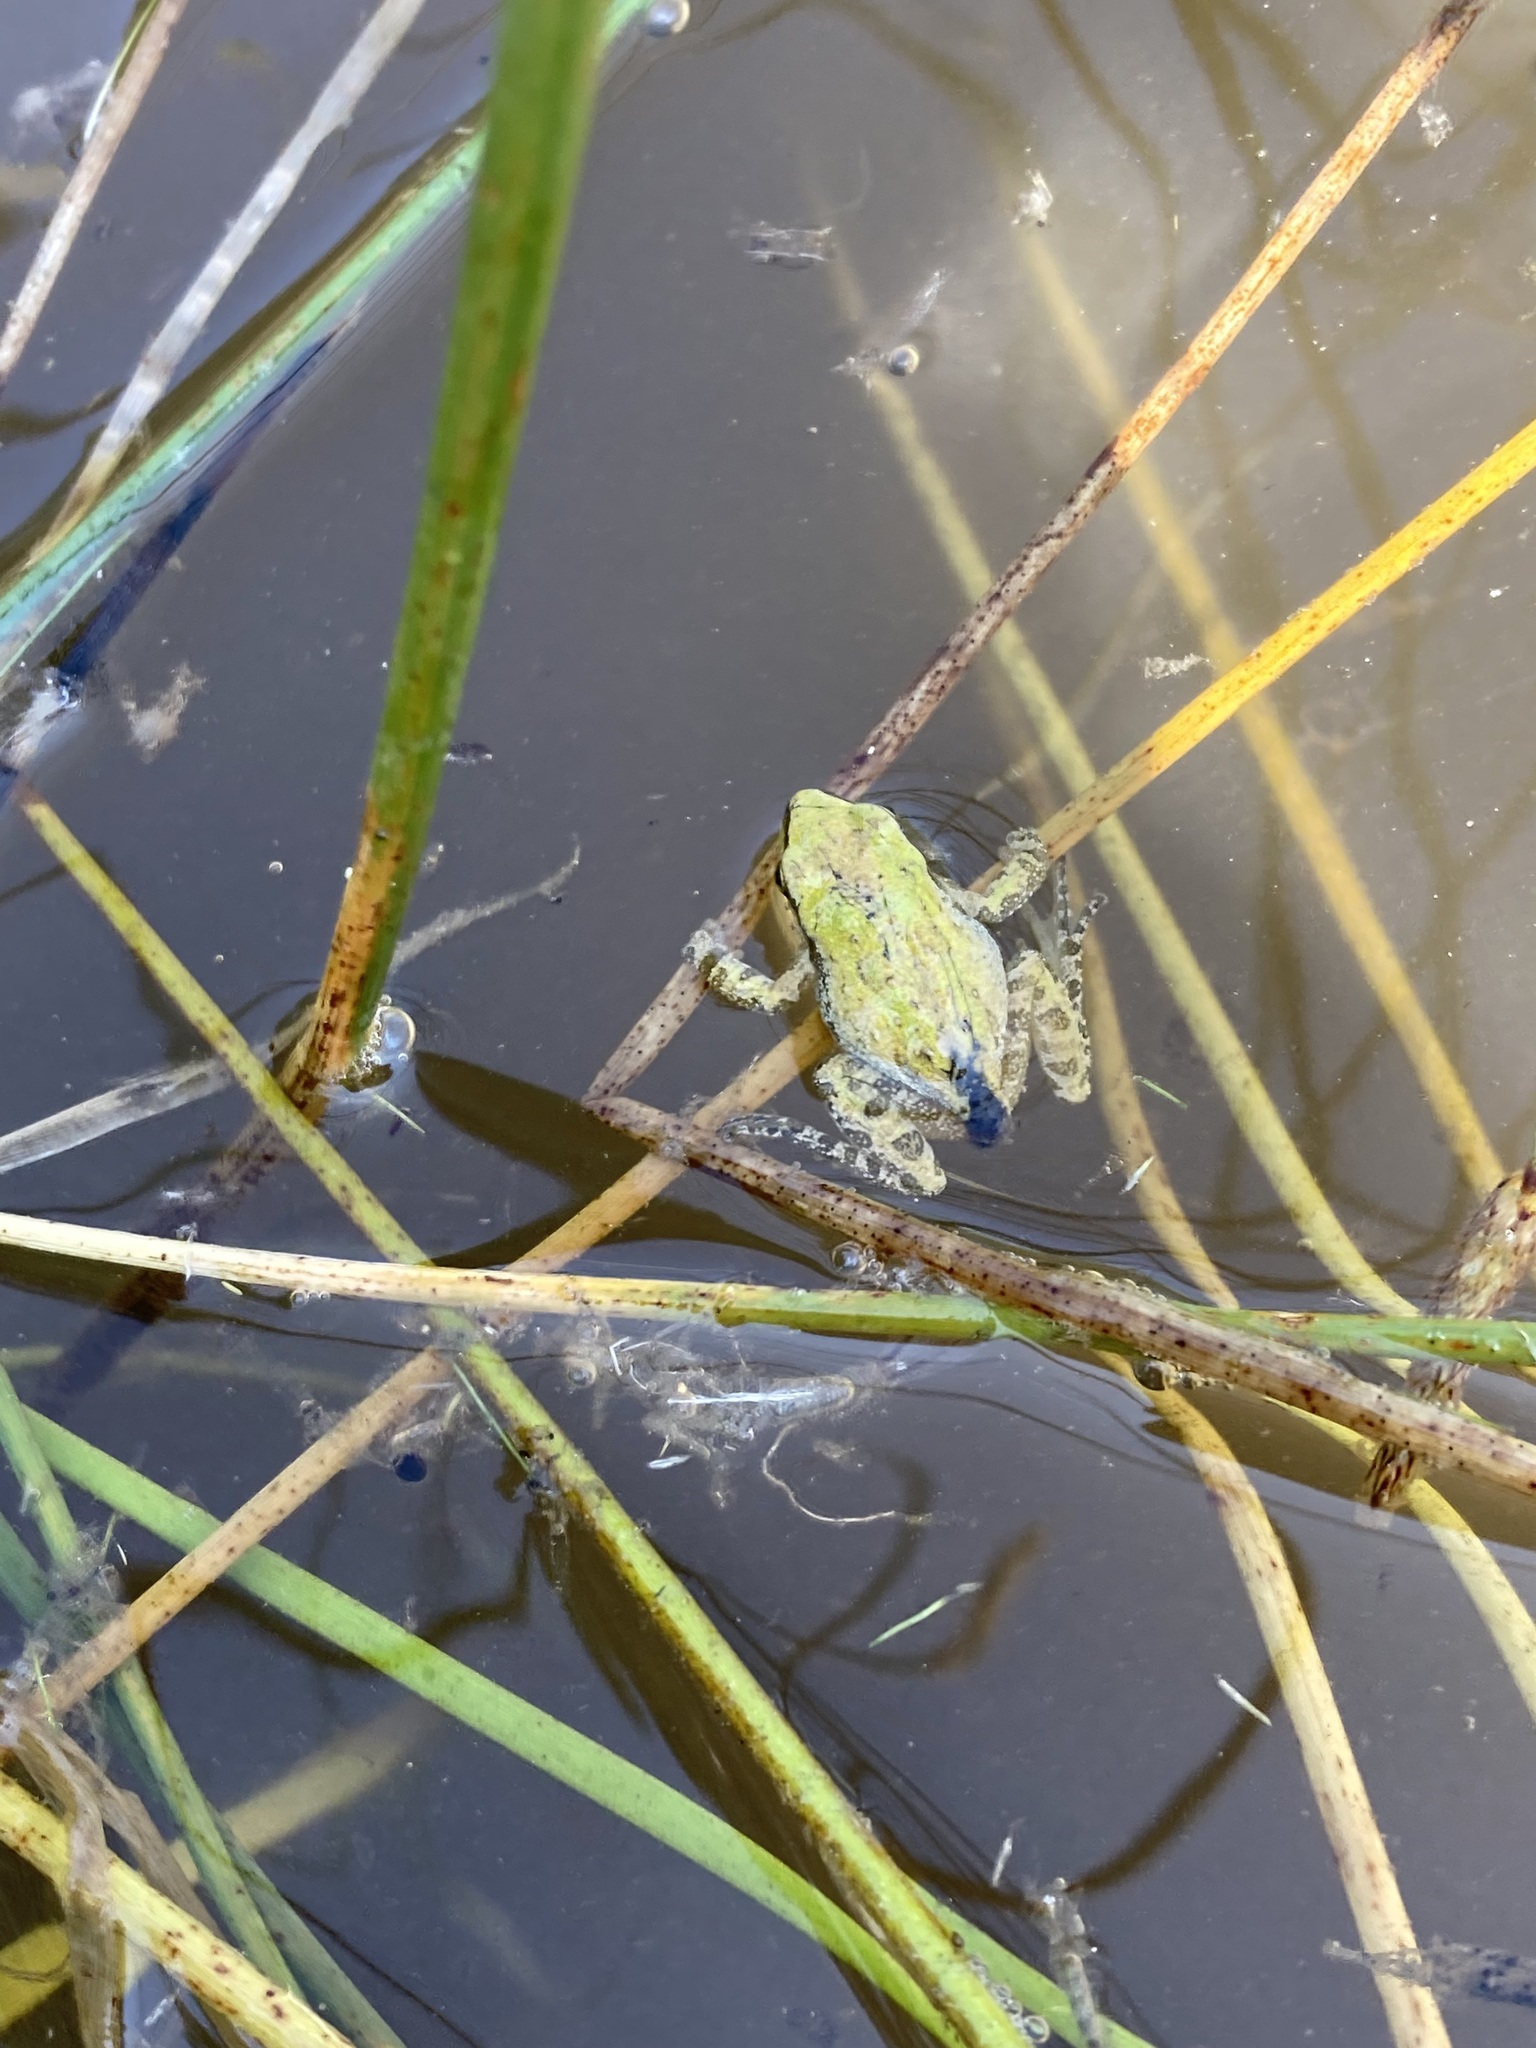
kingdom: Animalia
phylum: Chordata
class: Amphibia
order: Anura
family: Hylidae
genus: Pseudacris
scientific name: Pseudacris regilla
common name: Pacific chorus frog
